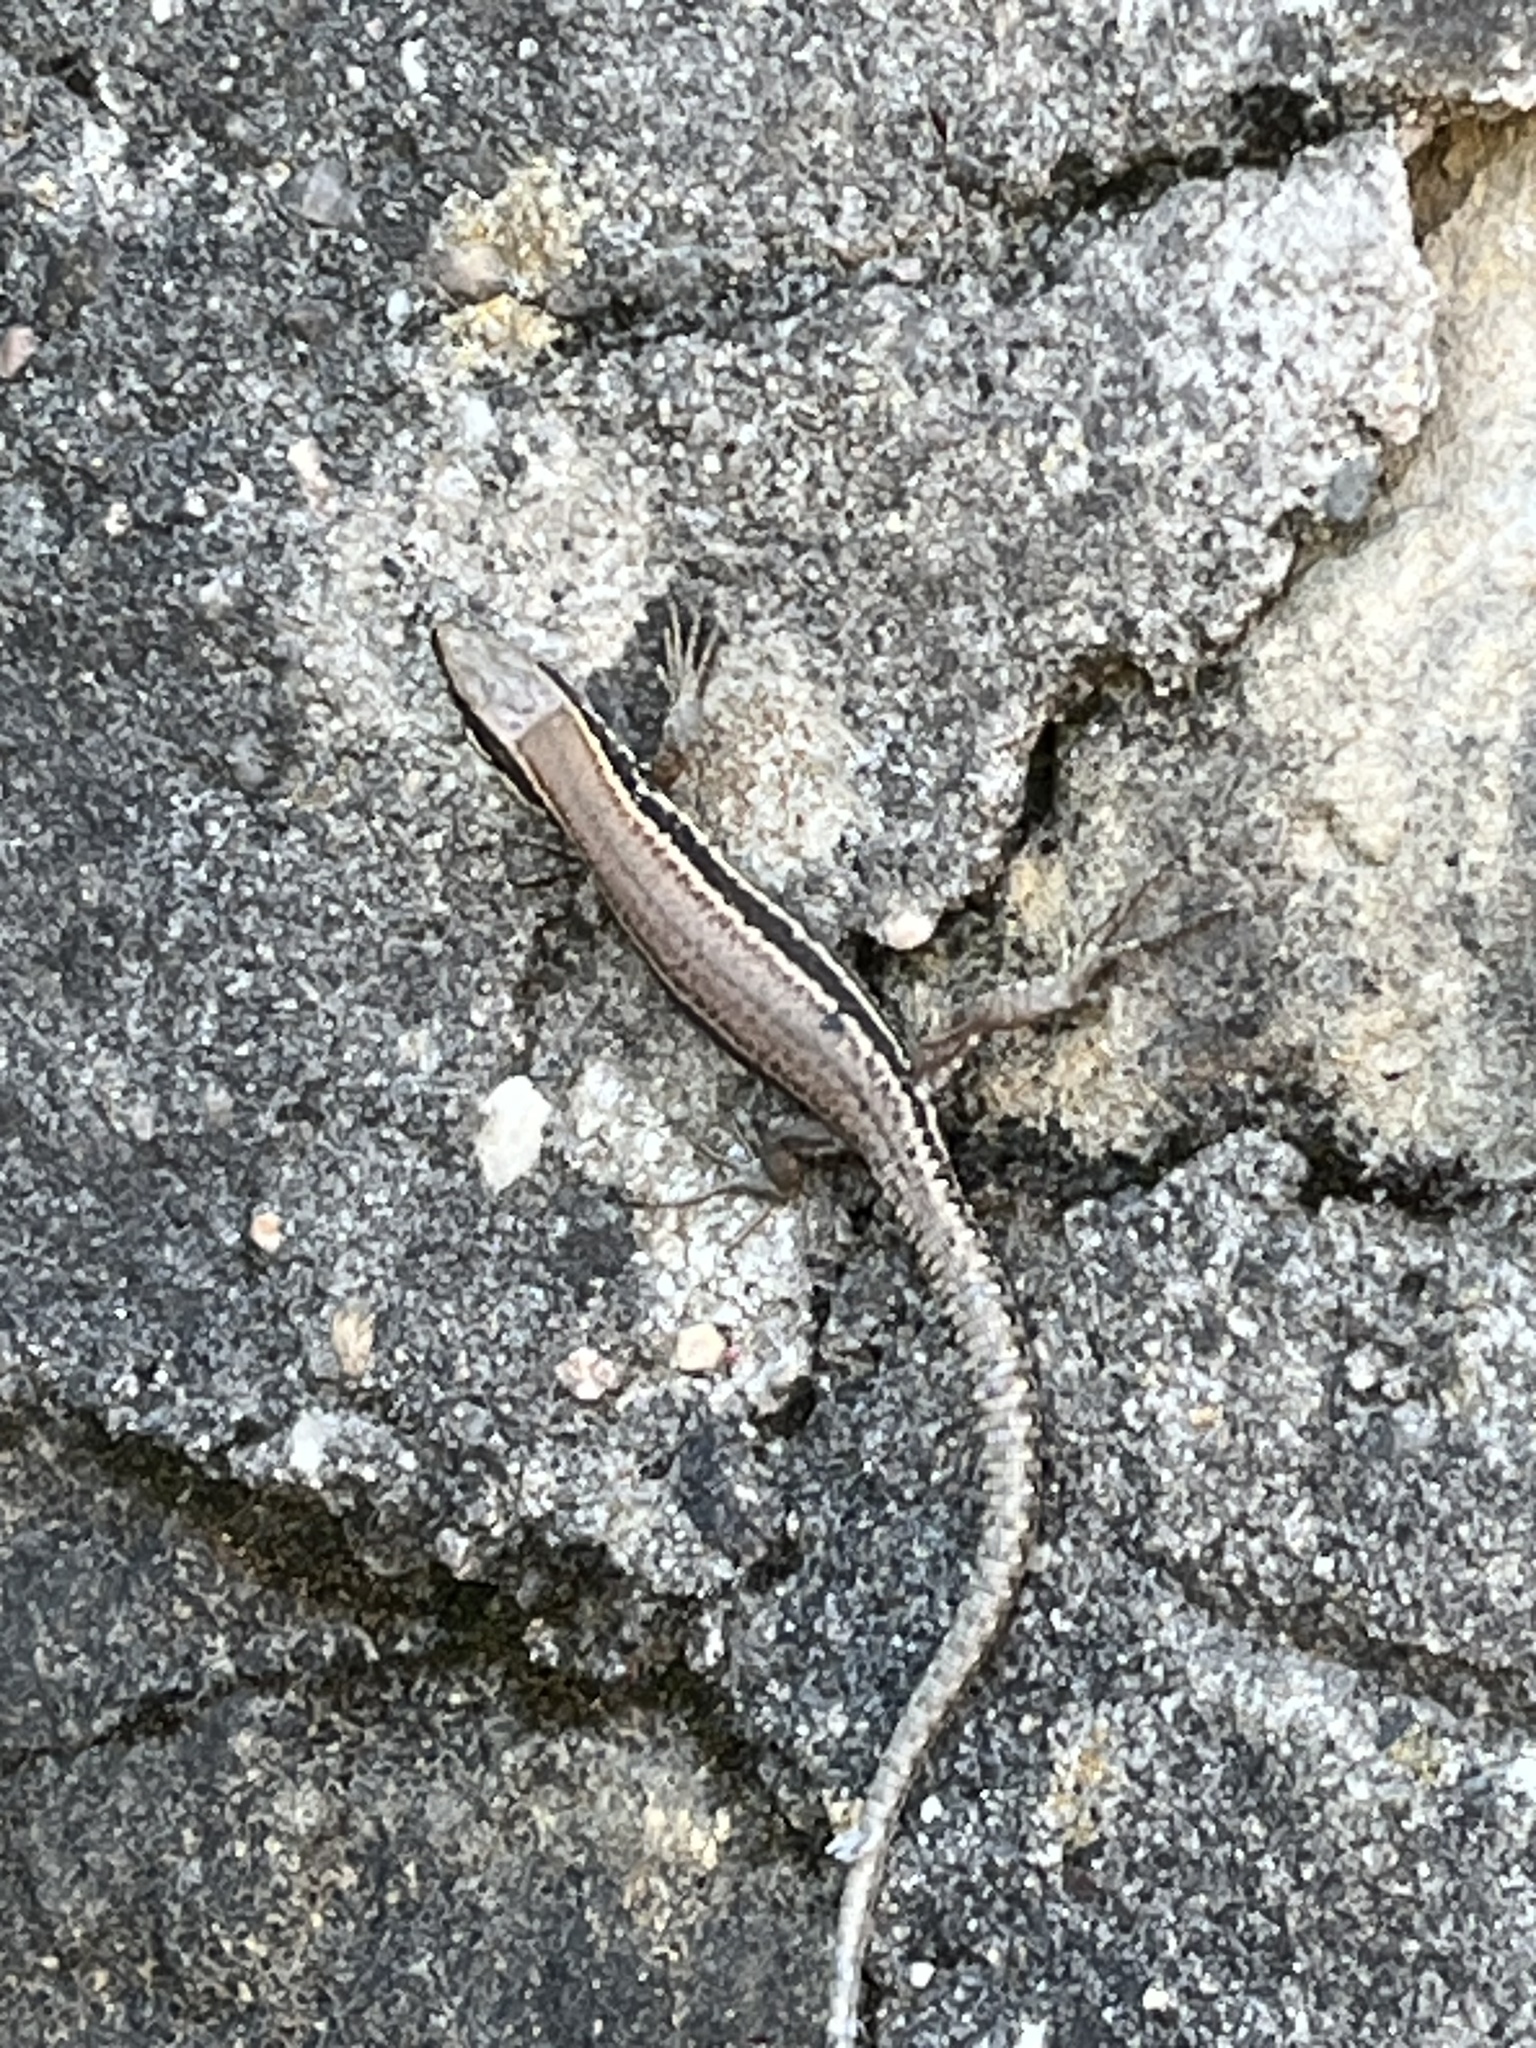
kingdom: Animalia
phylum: Chordata
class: Squamata
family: Lacertidae
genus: Podarcis
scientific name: Podarcis muralis
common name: Common wall lizard
